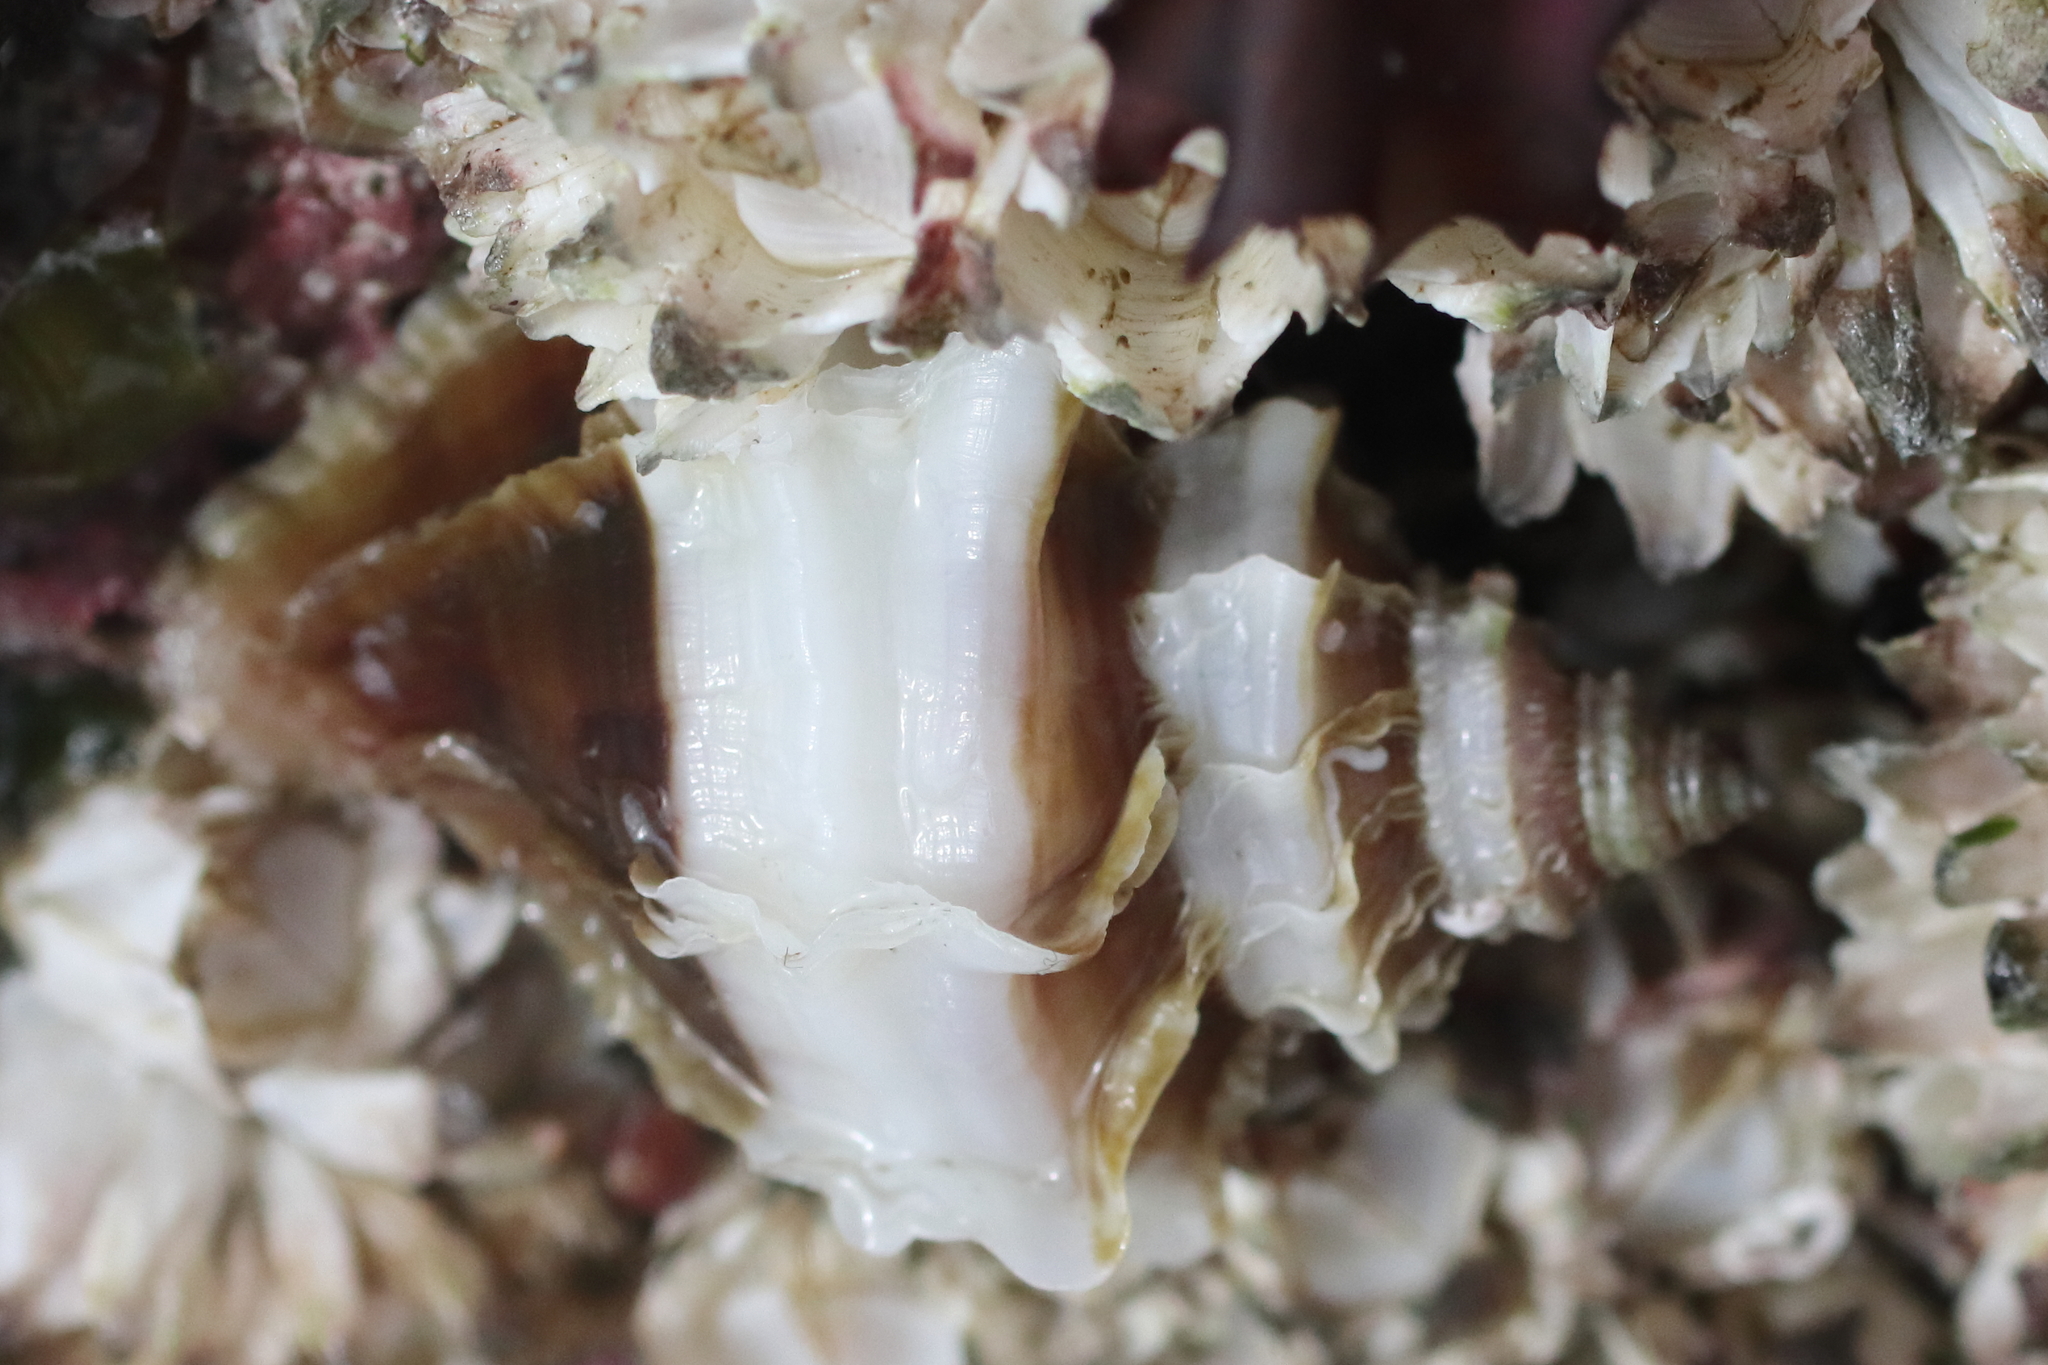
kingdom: Animalia
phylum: Mollusca
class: Gastropoda
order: Neogastropoda
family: Muricidae
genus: Nucella
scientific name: Nucella lamellosa
